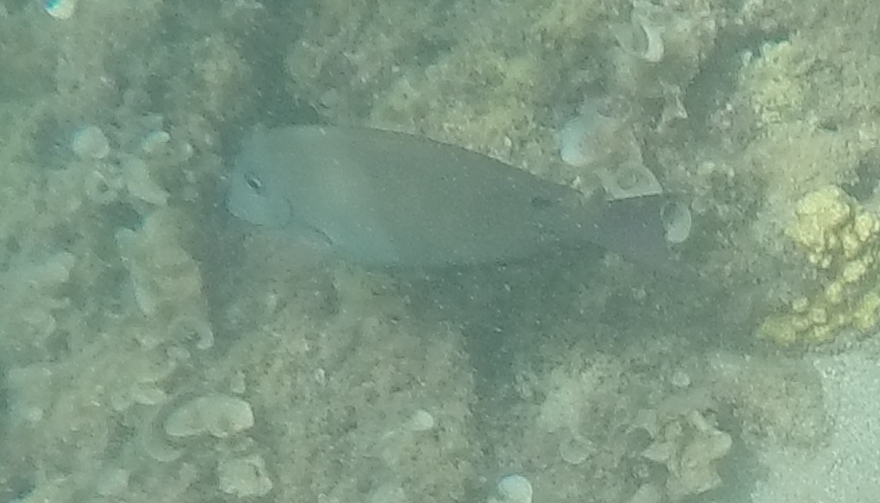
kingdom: Animalia
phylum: Chordata
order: Perciformes
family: Acanthuridae
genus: Acanthurus
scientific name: Acanthurus nigrofuscus
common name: Blackspot surgeonfish
